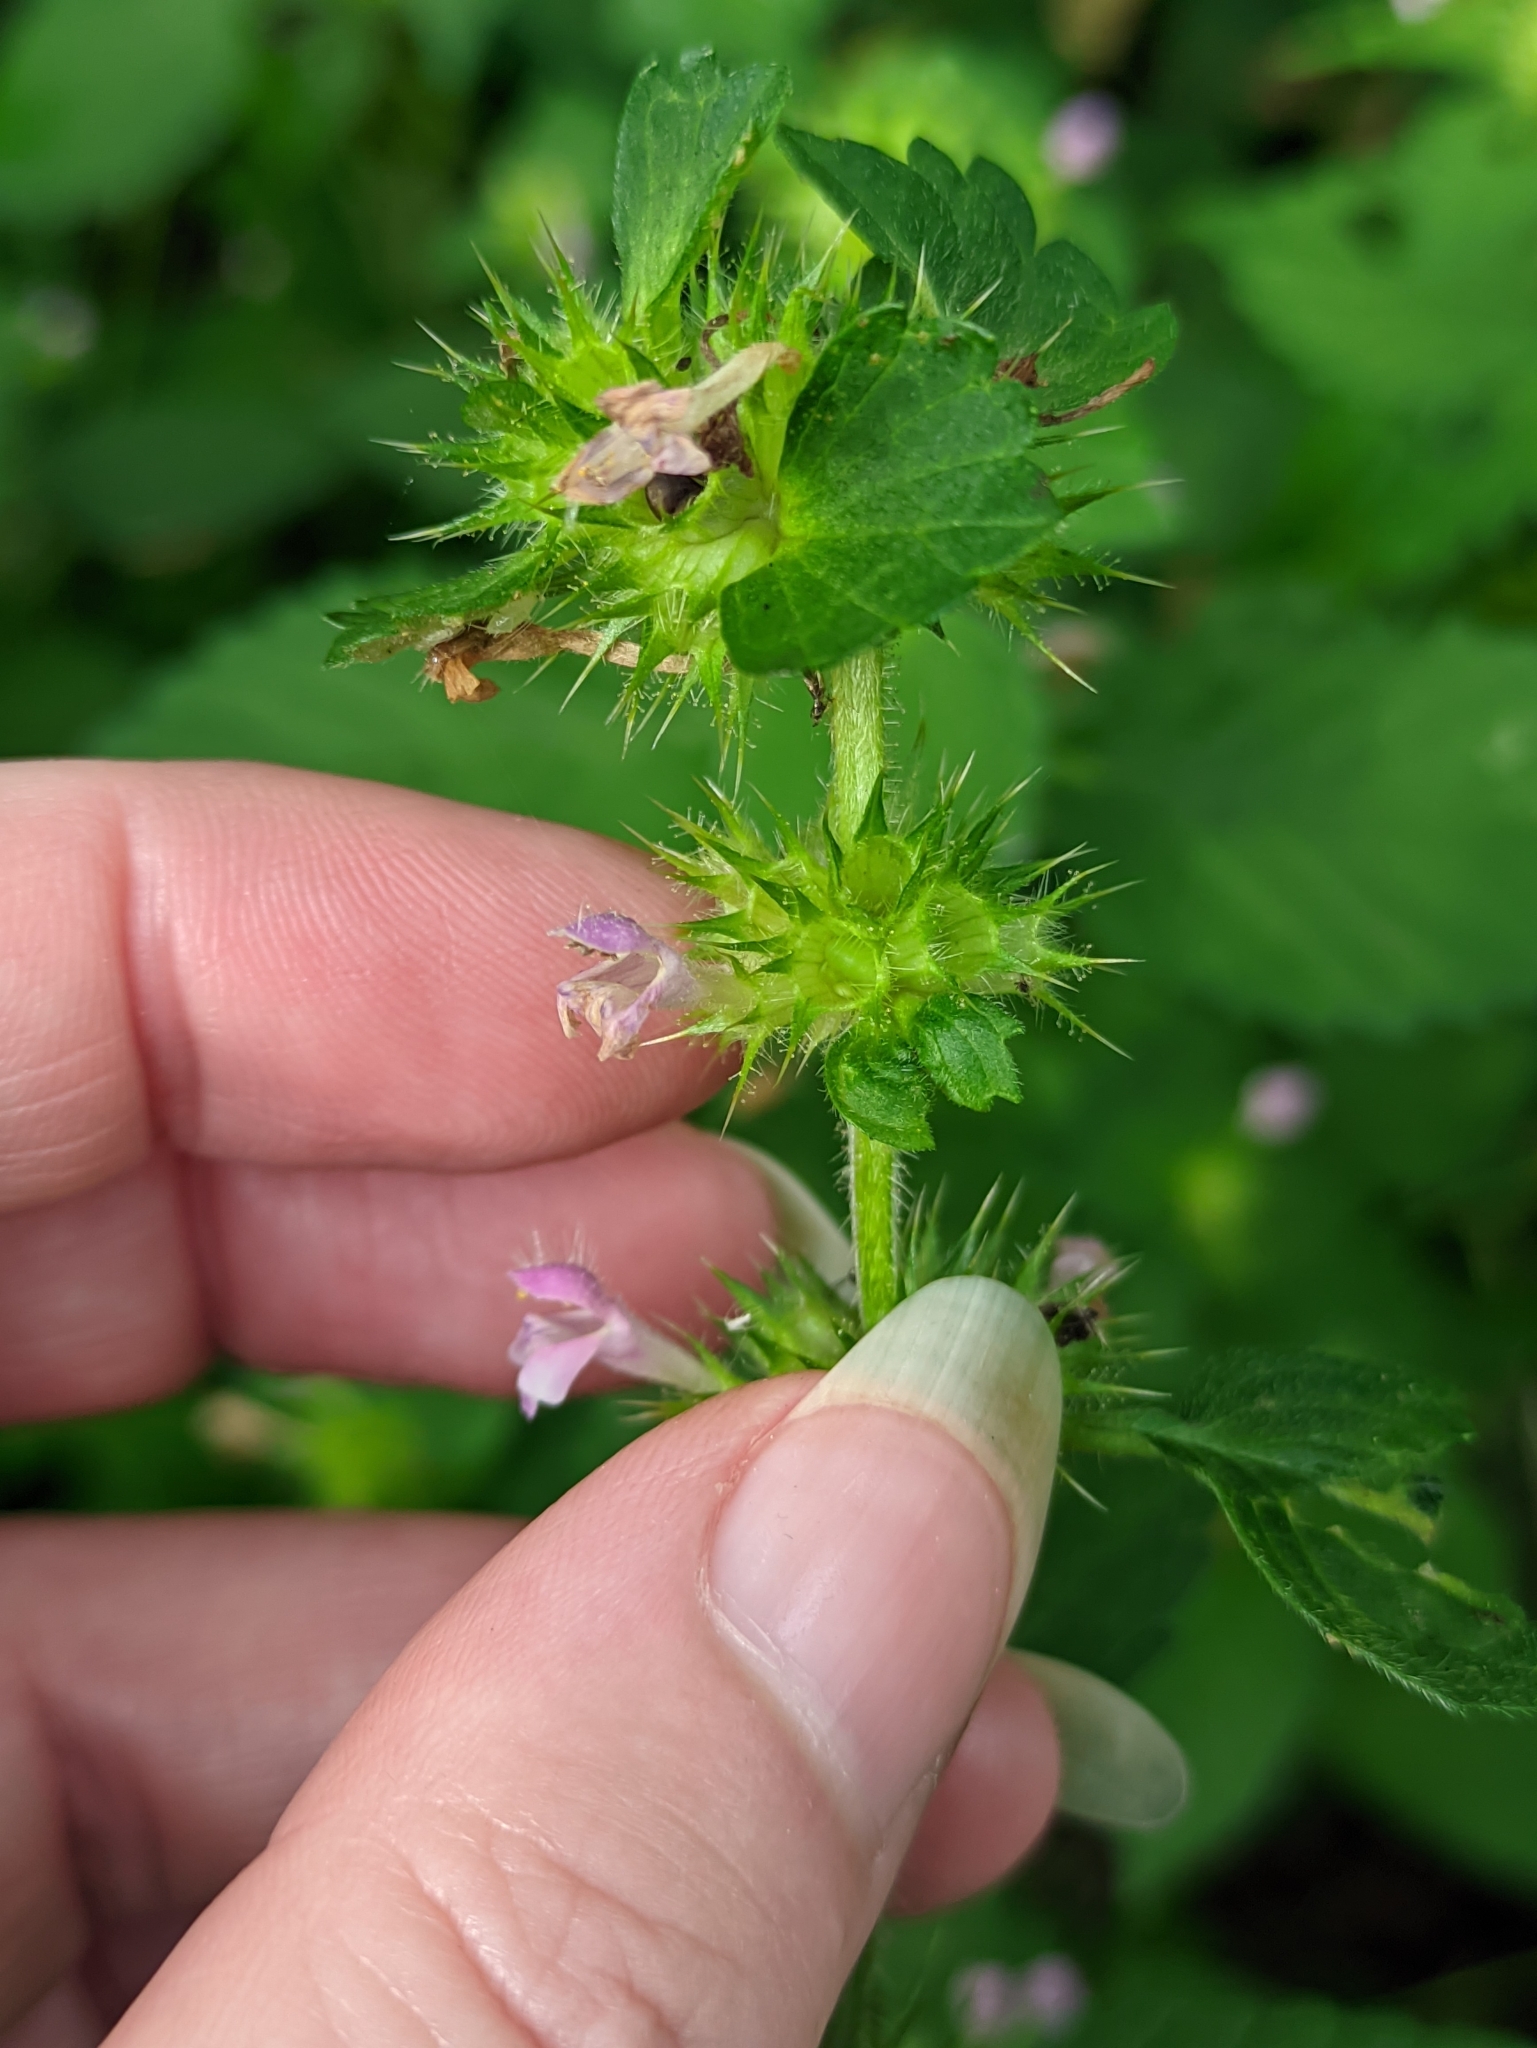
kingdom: Plantae
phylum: Tracheophyta
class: Magnoliopsida
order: Lamiales
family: Lamiaceae
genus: Galeopsis
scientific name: Galeopsis bifida
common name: Bifid hemp-nettle
